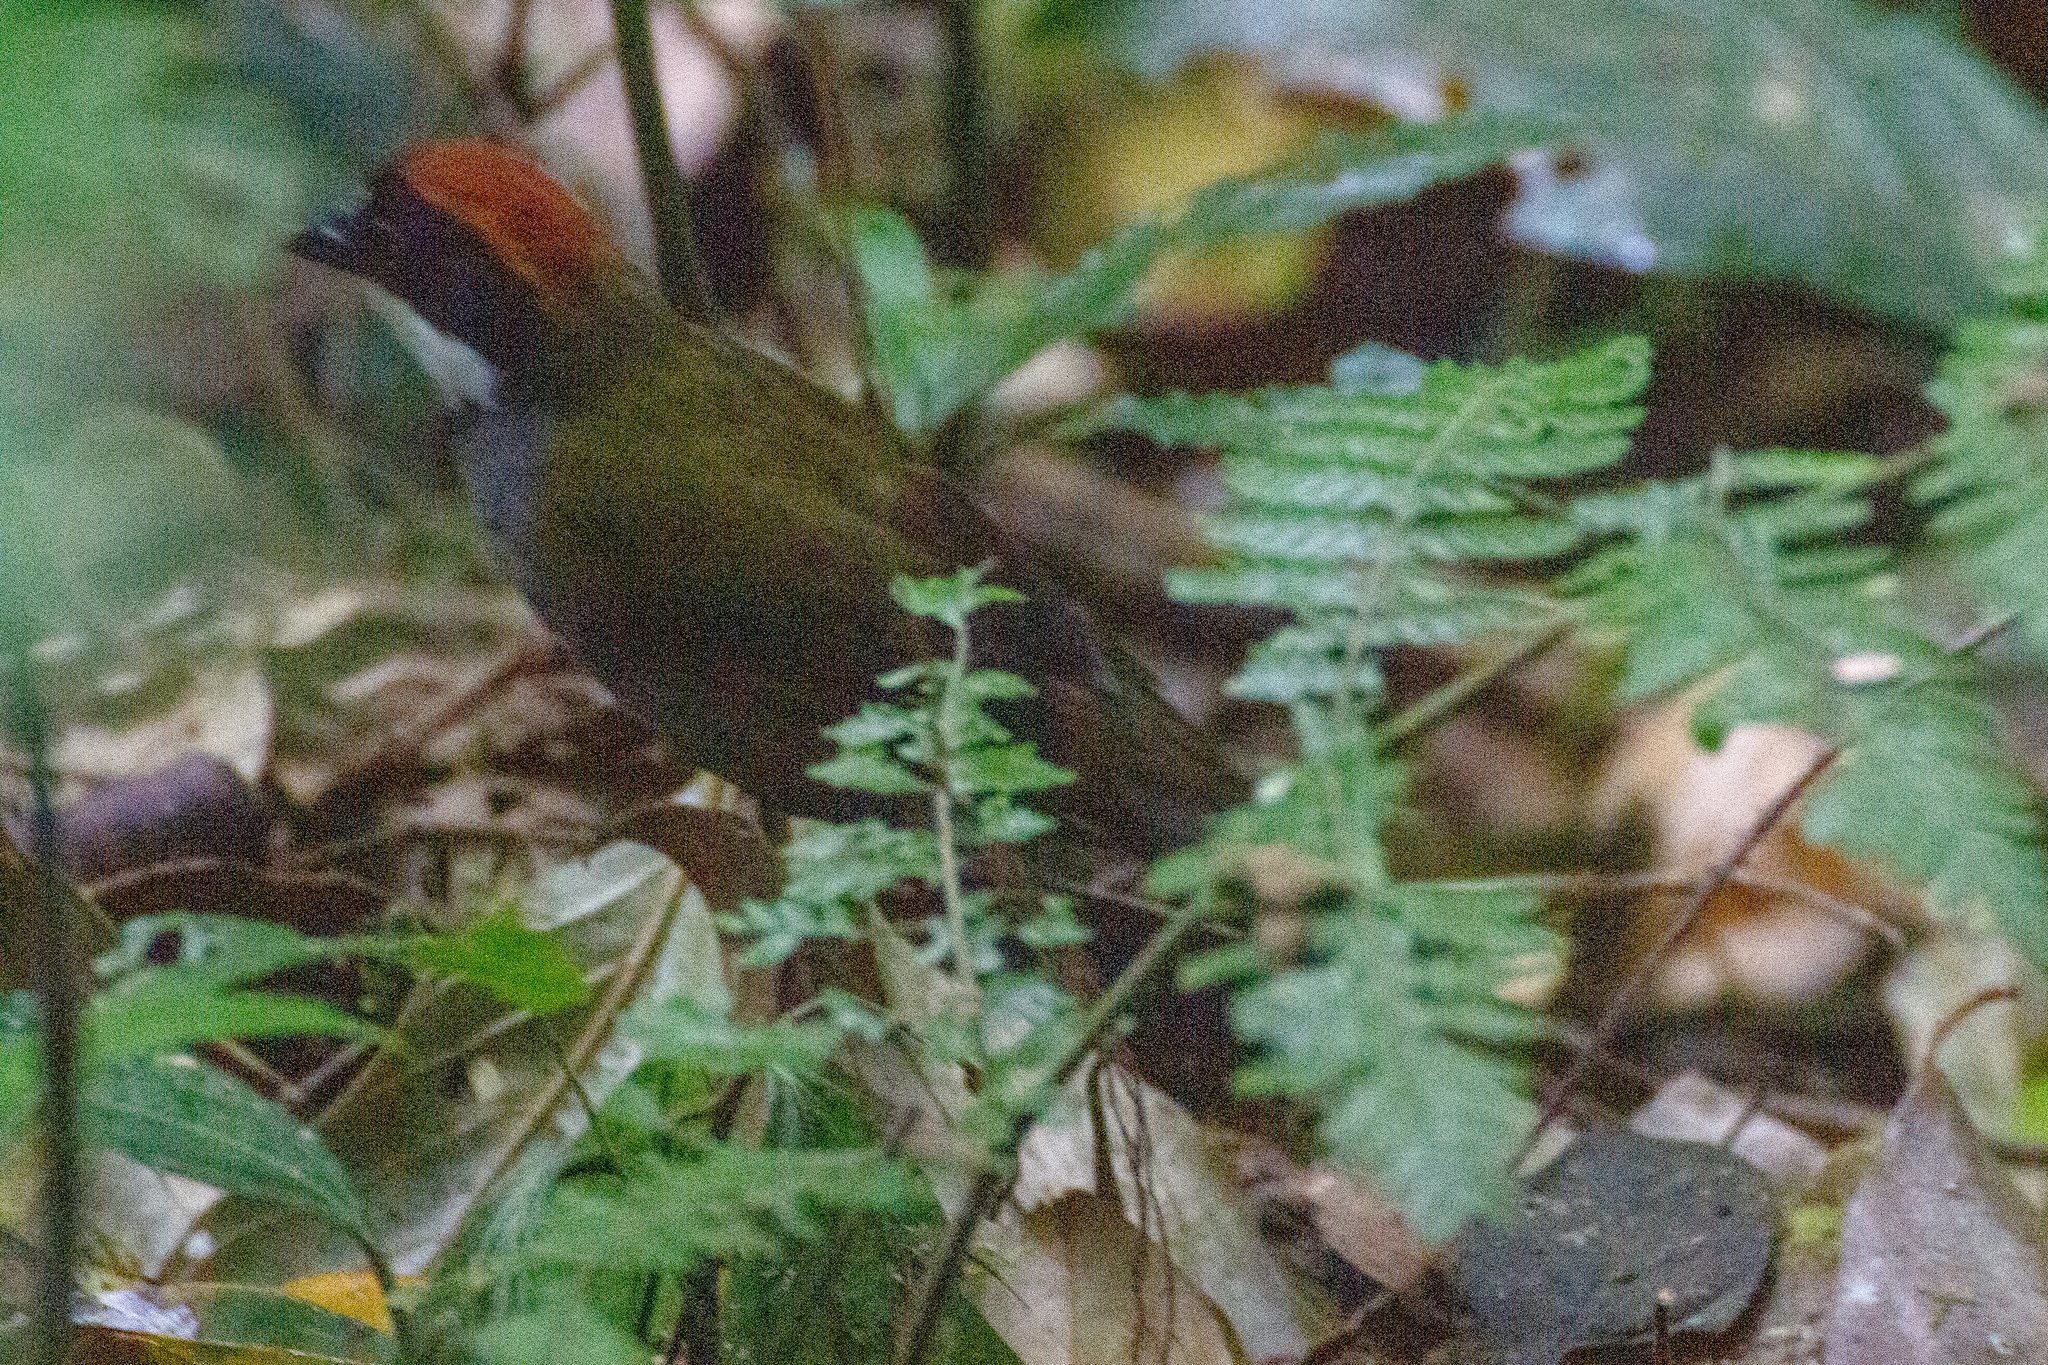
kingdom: Animalia
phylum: Chordata
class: Aves
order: Passeriformes
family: Passerellidae
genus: Arremon
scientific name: Arremon brunneinucha
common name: Chestnut-capped brushfinch
